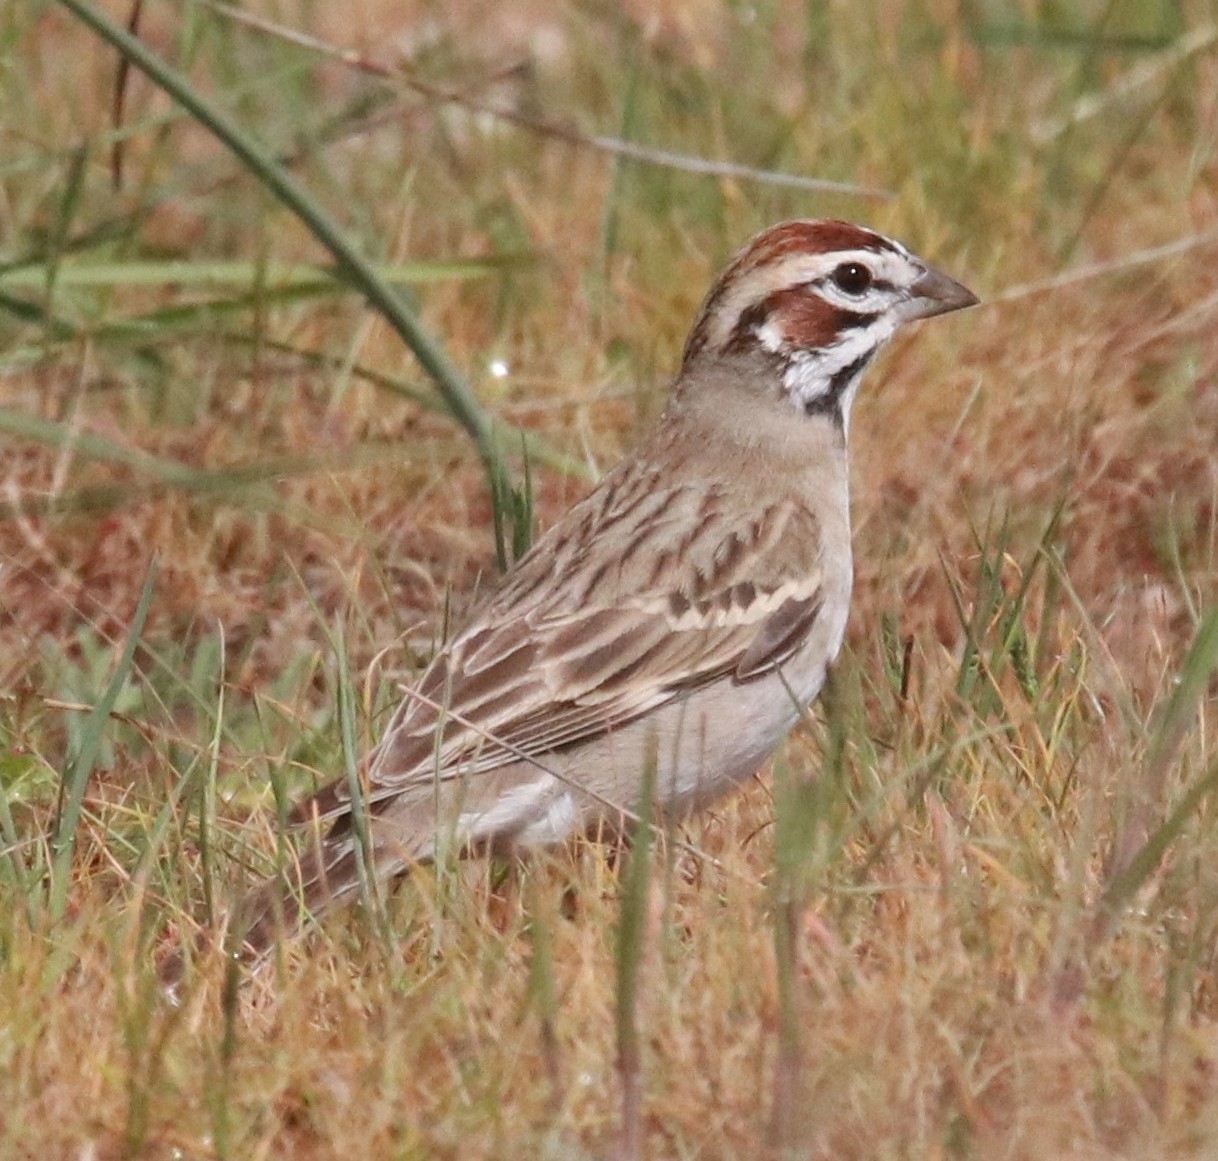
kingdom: Animalia
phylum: Chordata
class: Aves
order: Passeriformes
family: Passerellidae
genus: Chondestes
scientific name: Chondestes grammacus
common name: Lark sparrow
